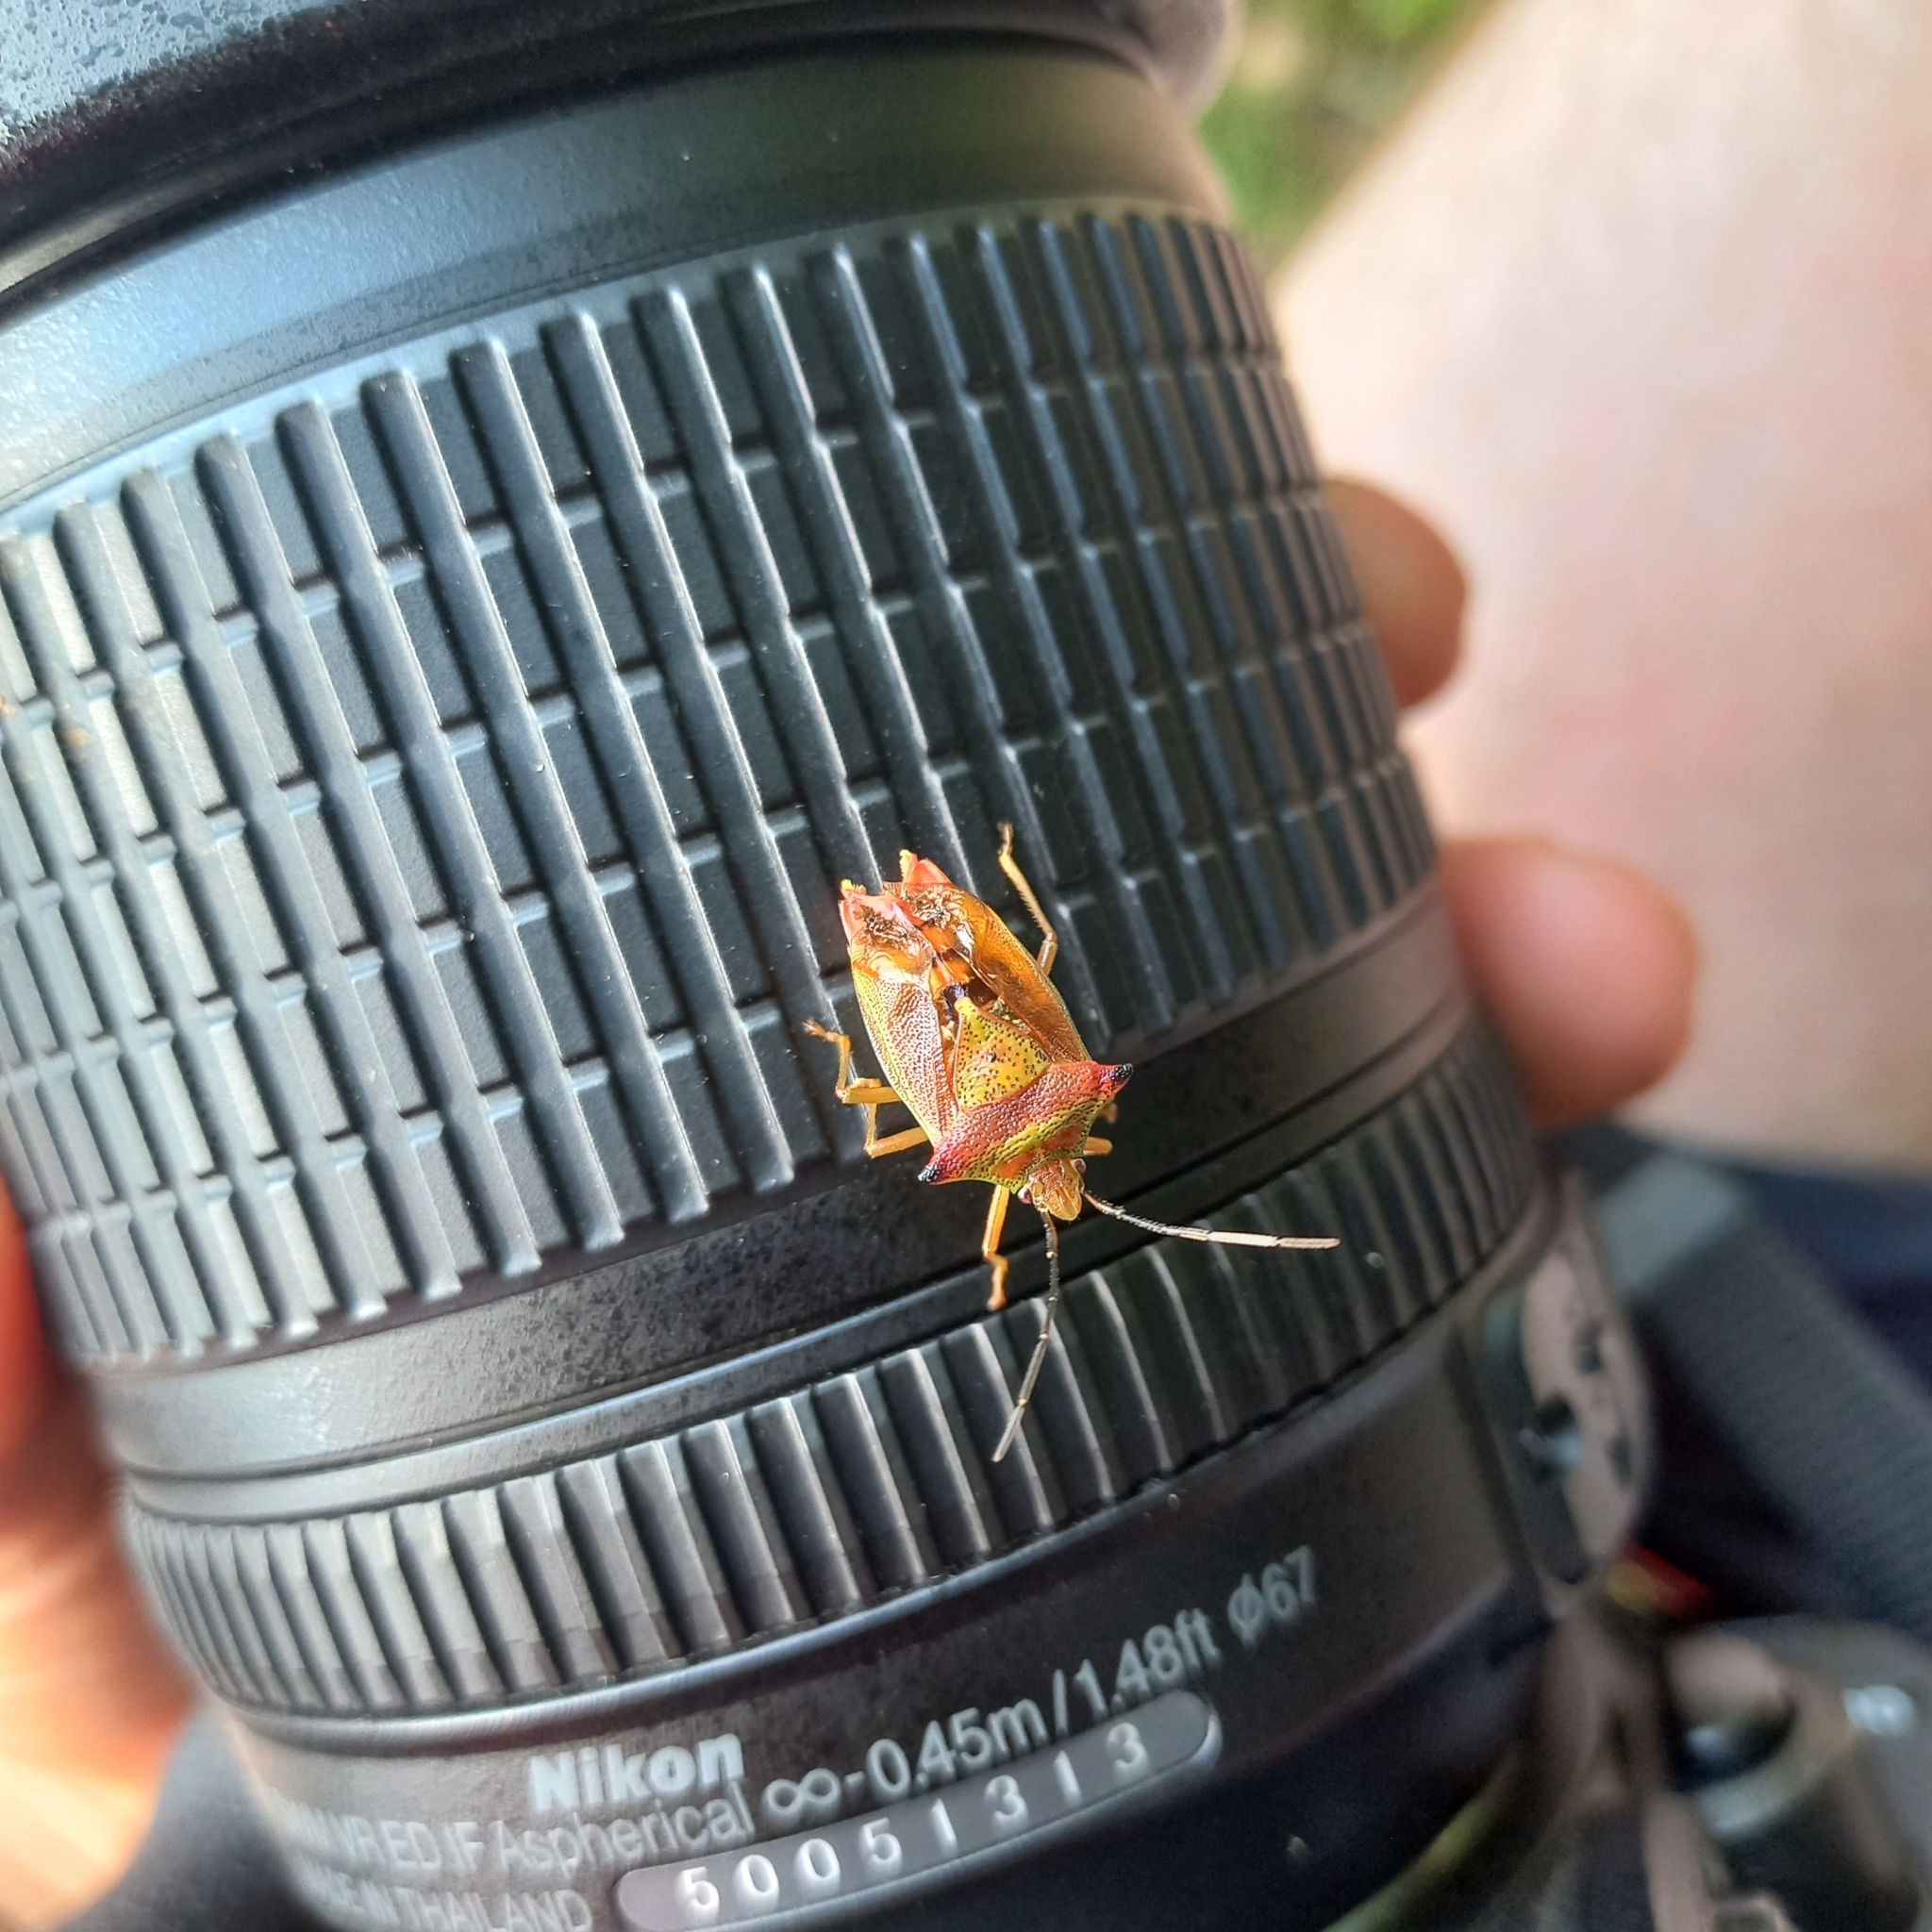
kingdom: Animalia
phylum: Arthropoda
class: Insecta
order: Hemiptera
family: Acanthosomatidae
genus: Acanthosoma
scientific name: Acanthosoma haemorrhoidale
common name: Hawthorn shieldbug
